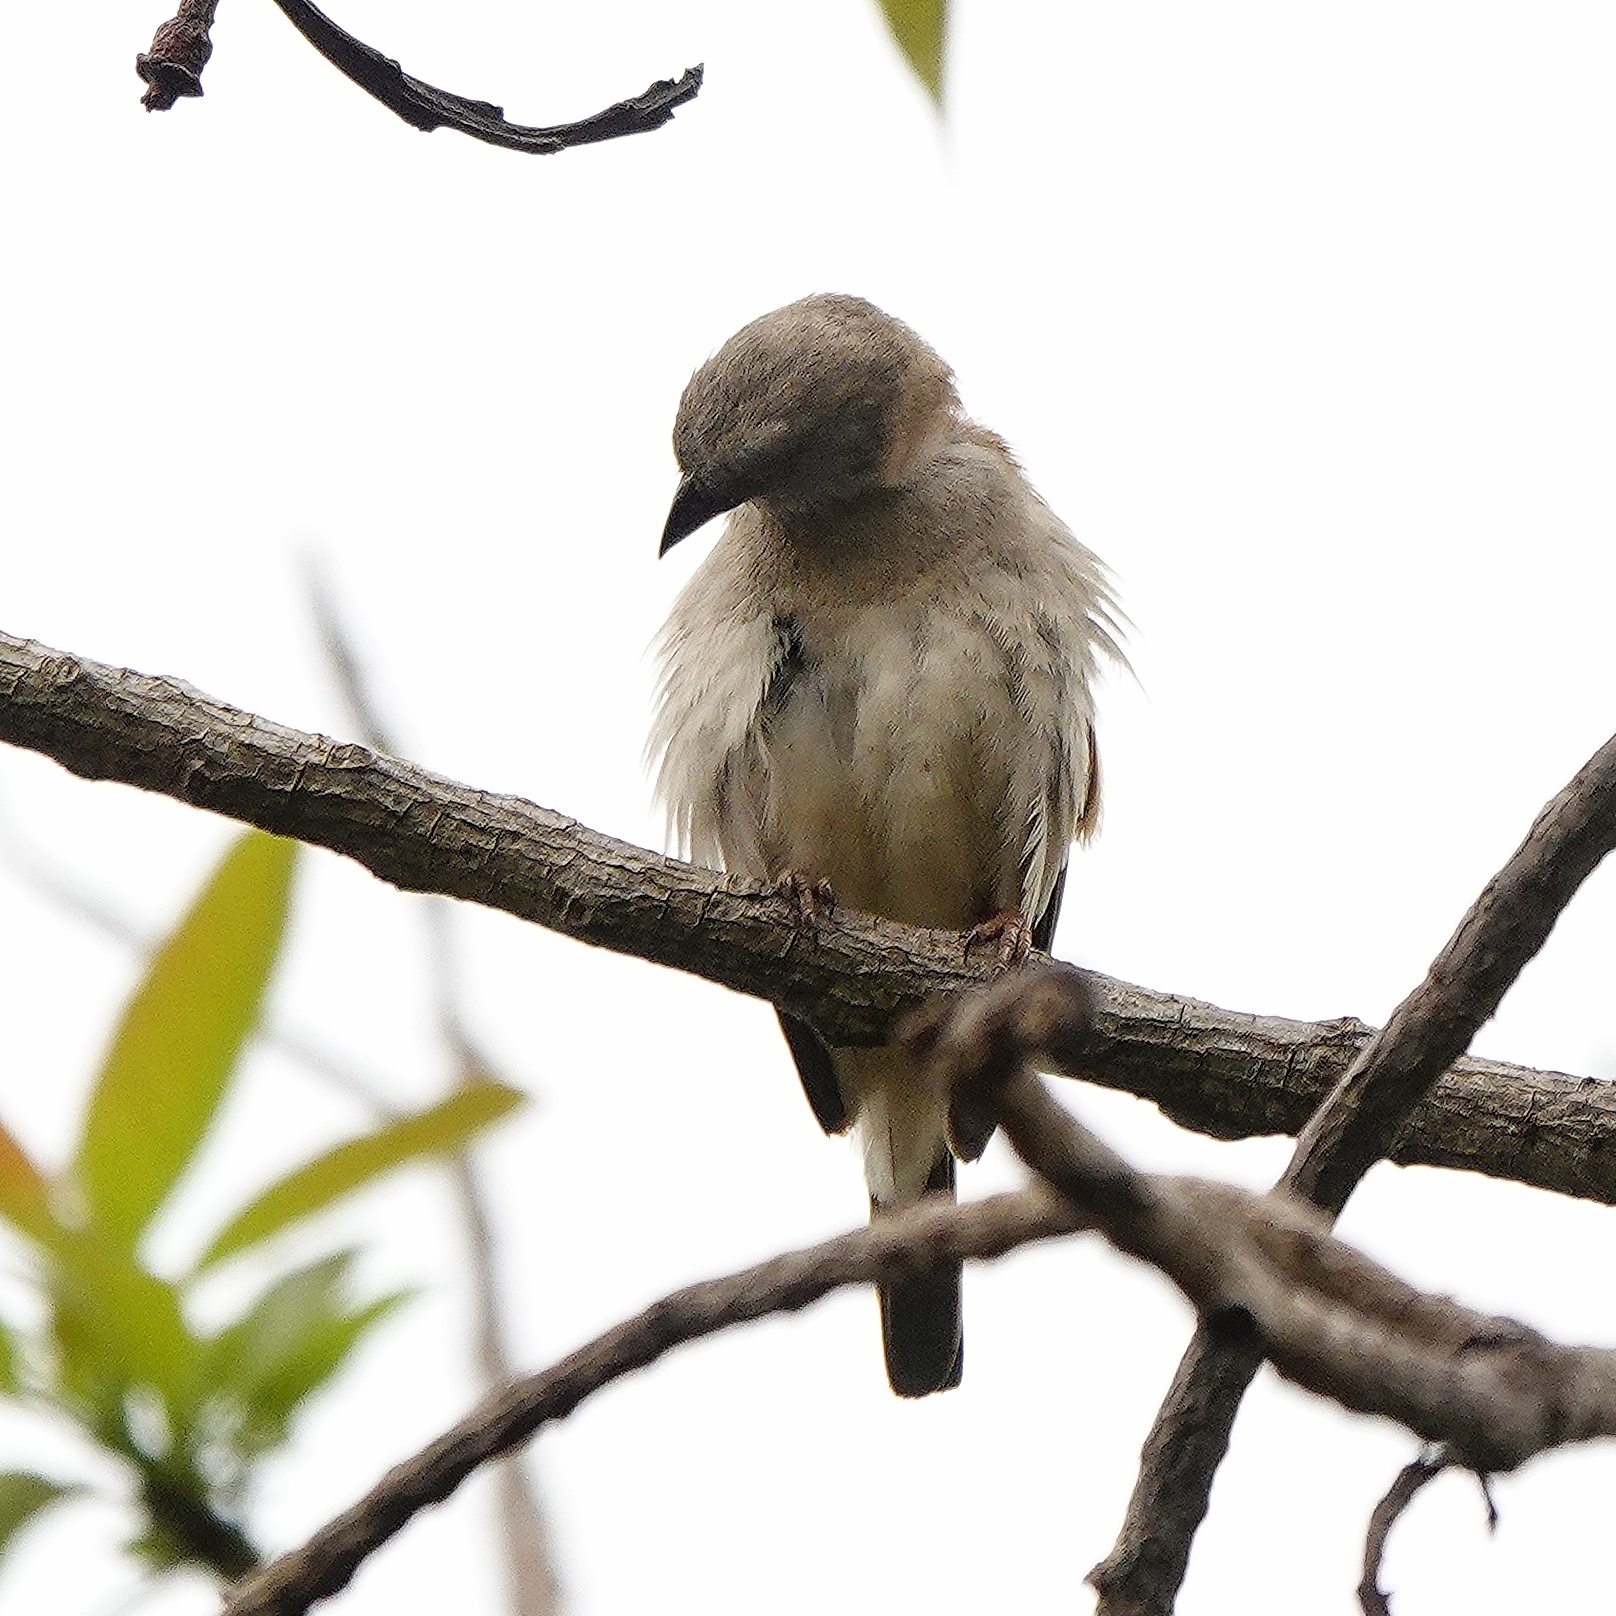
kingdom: Animalia
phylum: Chordata
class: Aves
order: Passeriformes
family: Passeridae
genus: Passer
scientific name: Passer griseus
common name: Northern grey-headed sparrow
